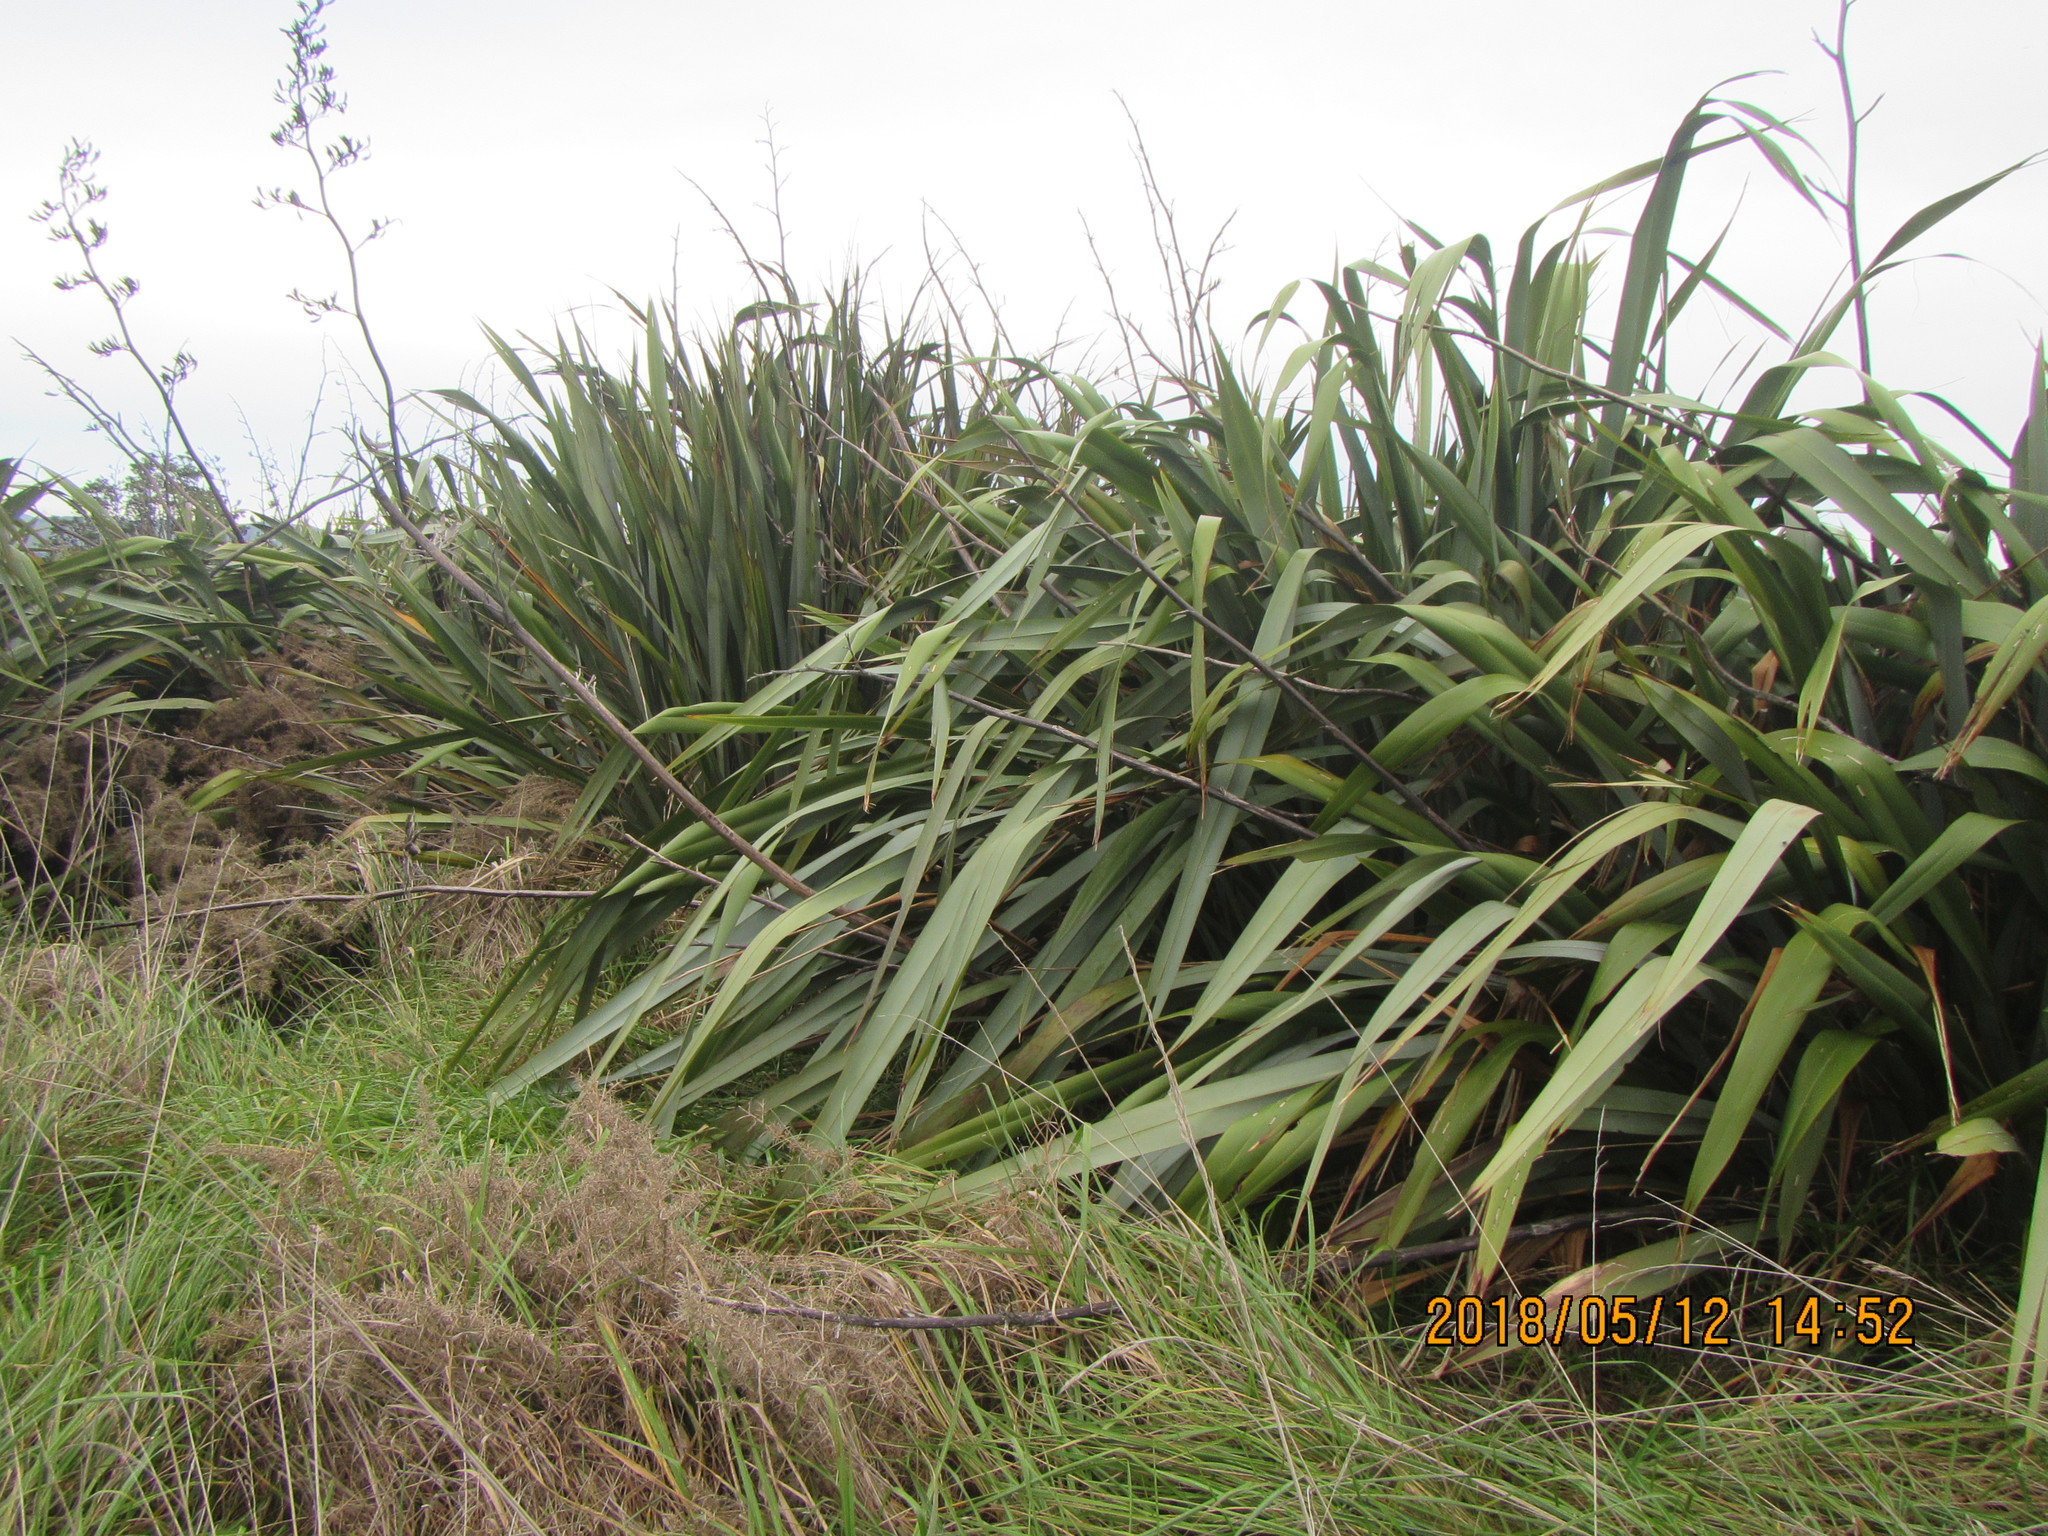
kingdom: Plantae
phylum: Tracheophyta
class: Liliopsida
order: Asparagales
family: Asphodelaceae
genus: Phormium
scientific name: Phormium tenax
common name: New zealand flax
